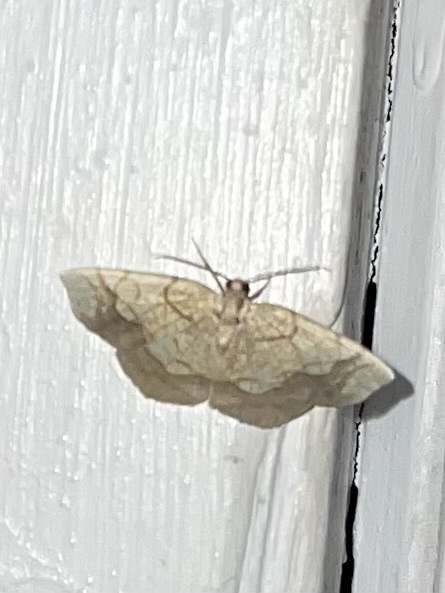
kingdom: Animalia
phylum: Arthropoda
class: Insecta
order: Lepidoptera
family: Geometridae
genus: Nematocampa
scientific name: Nematocampa resistaria
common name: Horned spanworm moth
